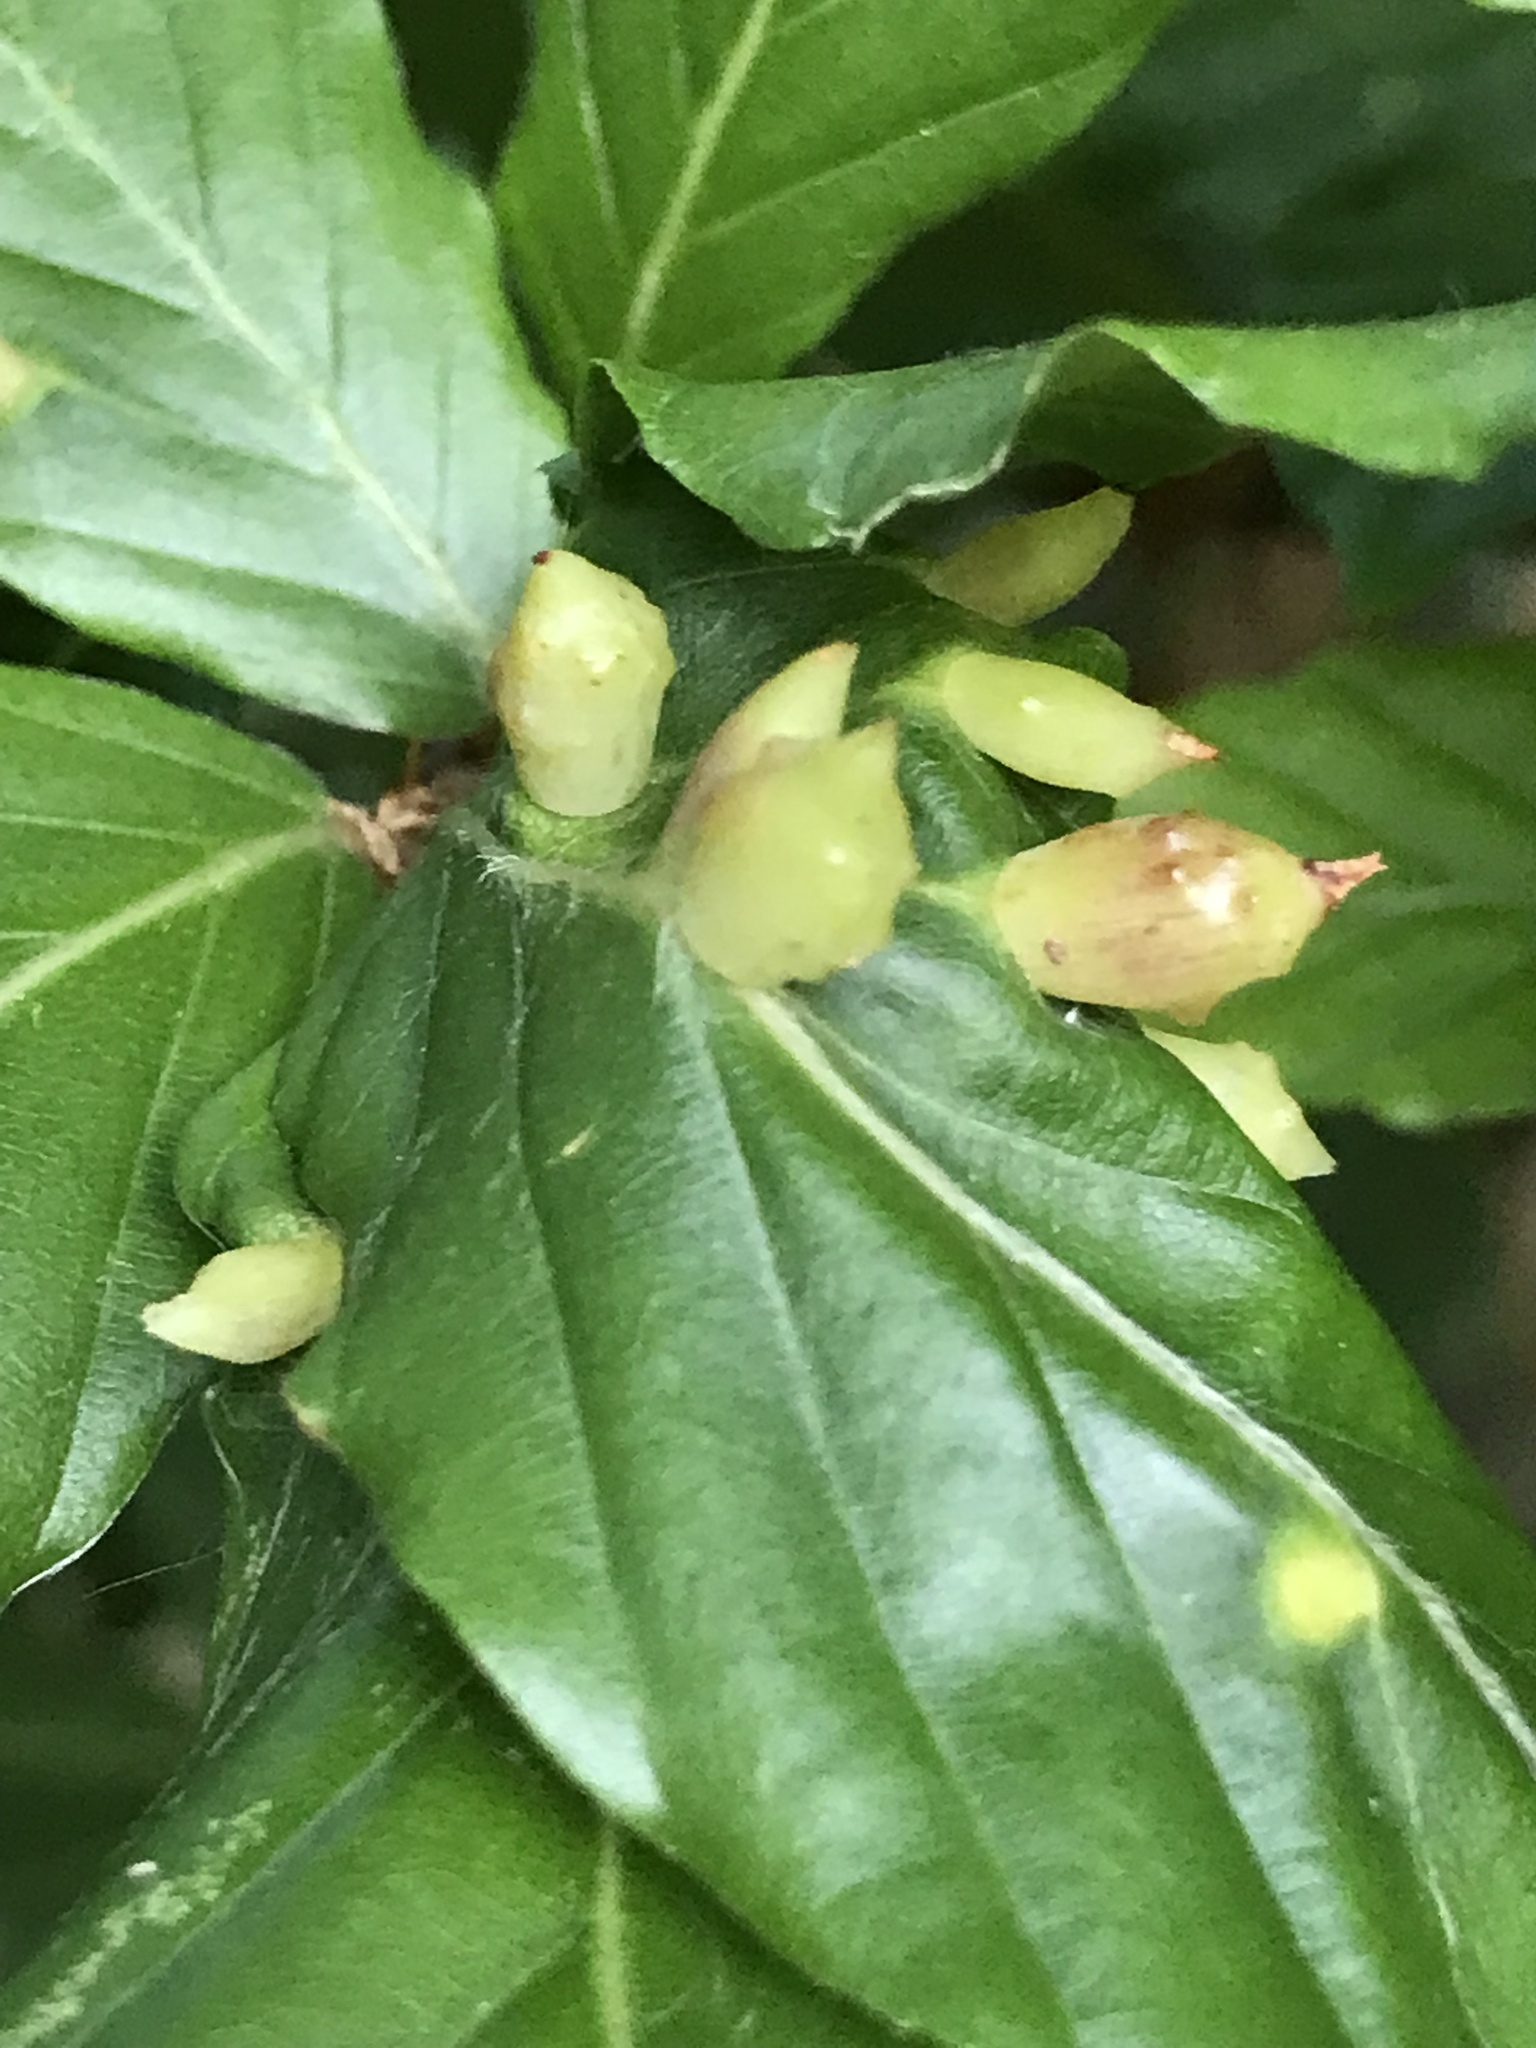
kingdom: Animalia
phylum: Arthropoda
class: Insecta
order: Diptera
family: Cecidomyiidae
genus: Mikiola
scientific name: Mikiola fagi
